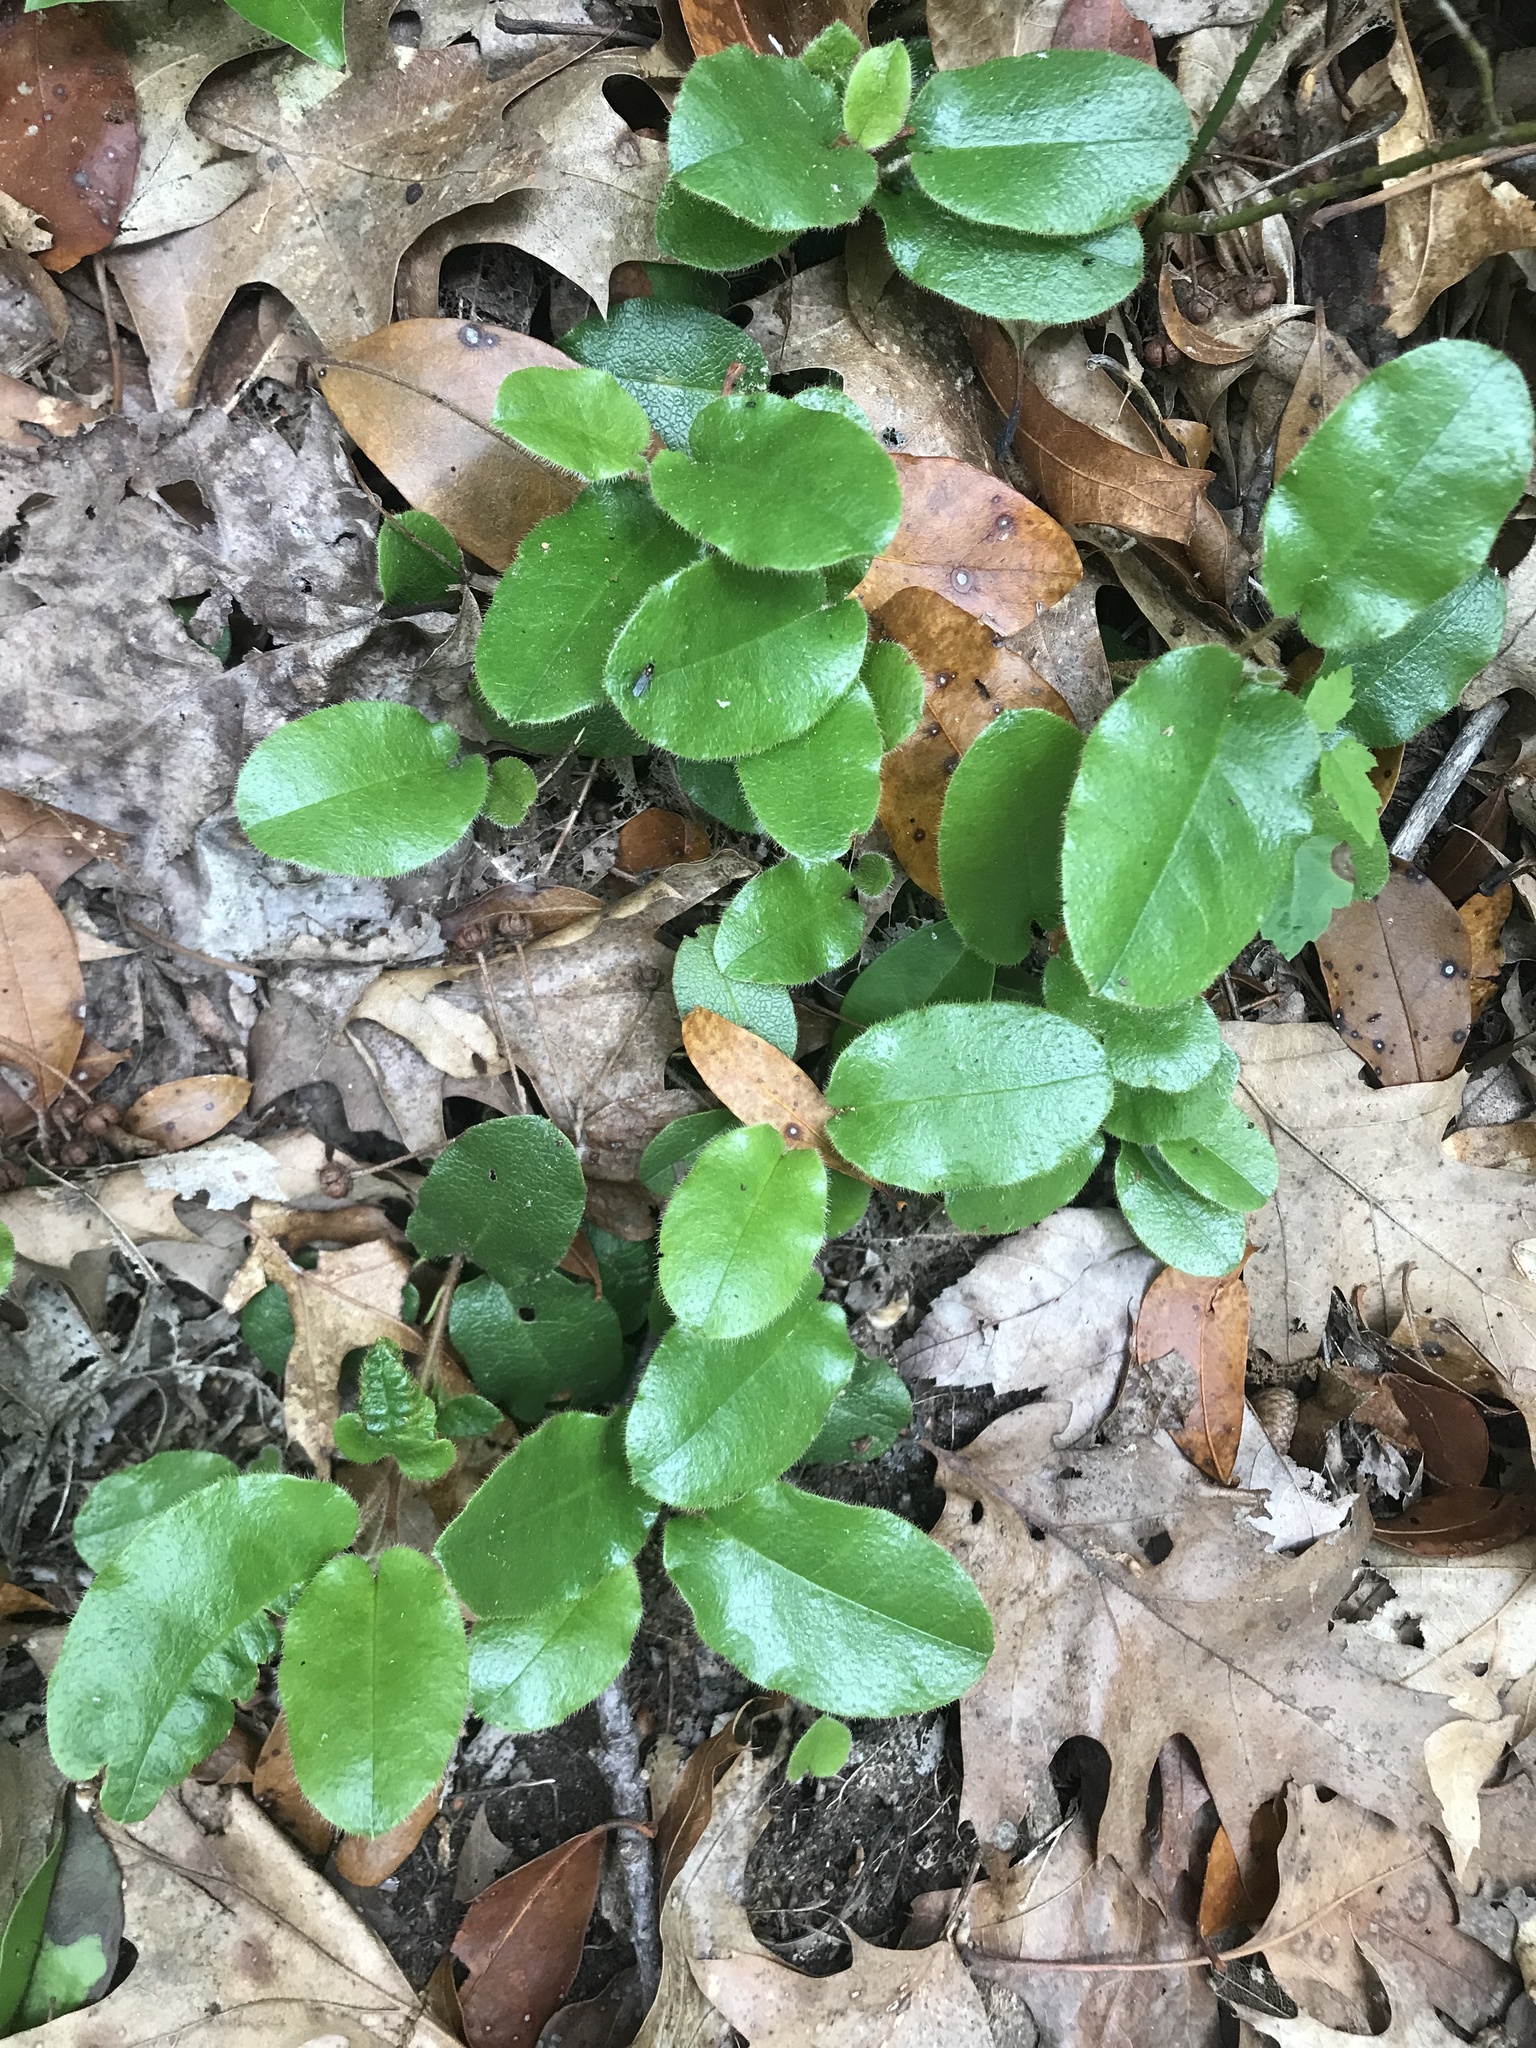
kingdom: Plantae
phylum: Tracheophyta
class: Magnoliopsida
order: Ericales
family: Ericaceae
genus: Epigaea
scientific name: Epigaea repens
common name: Gravelroot
